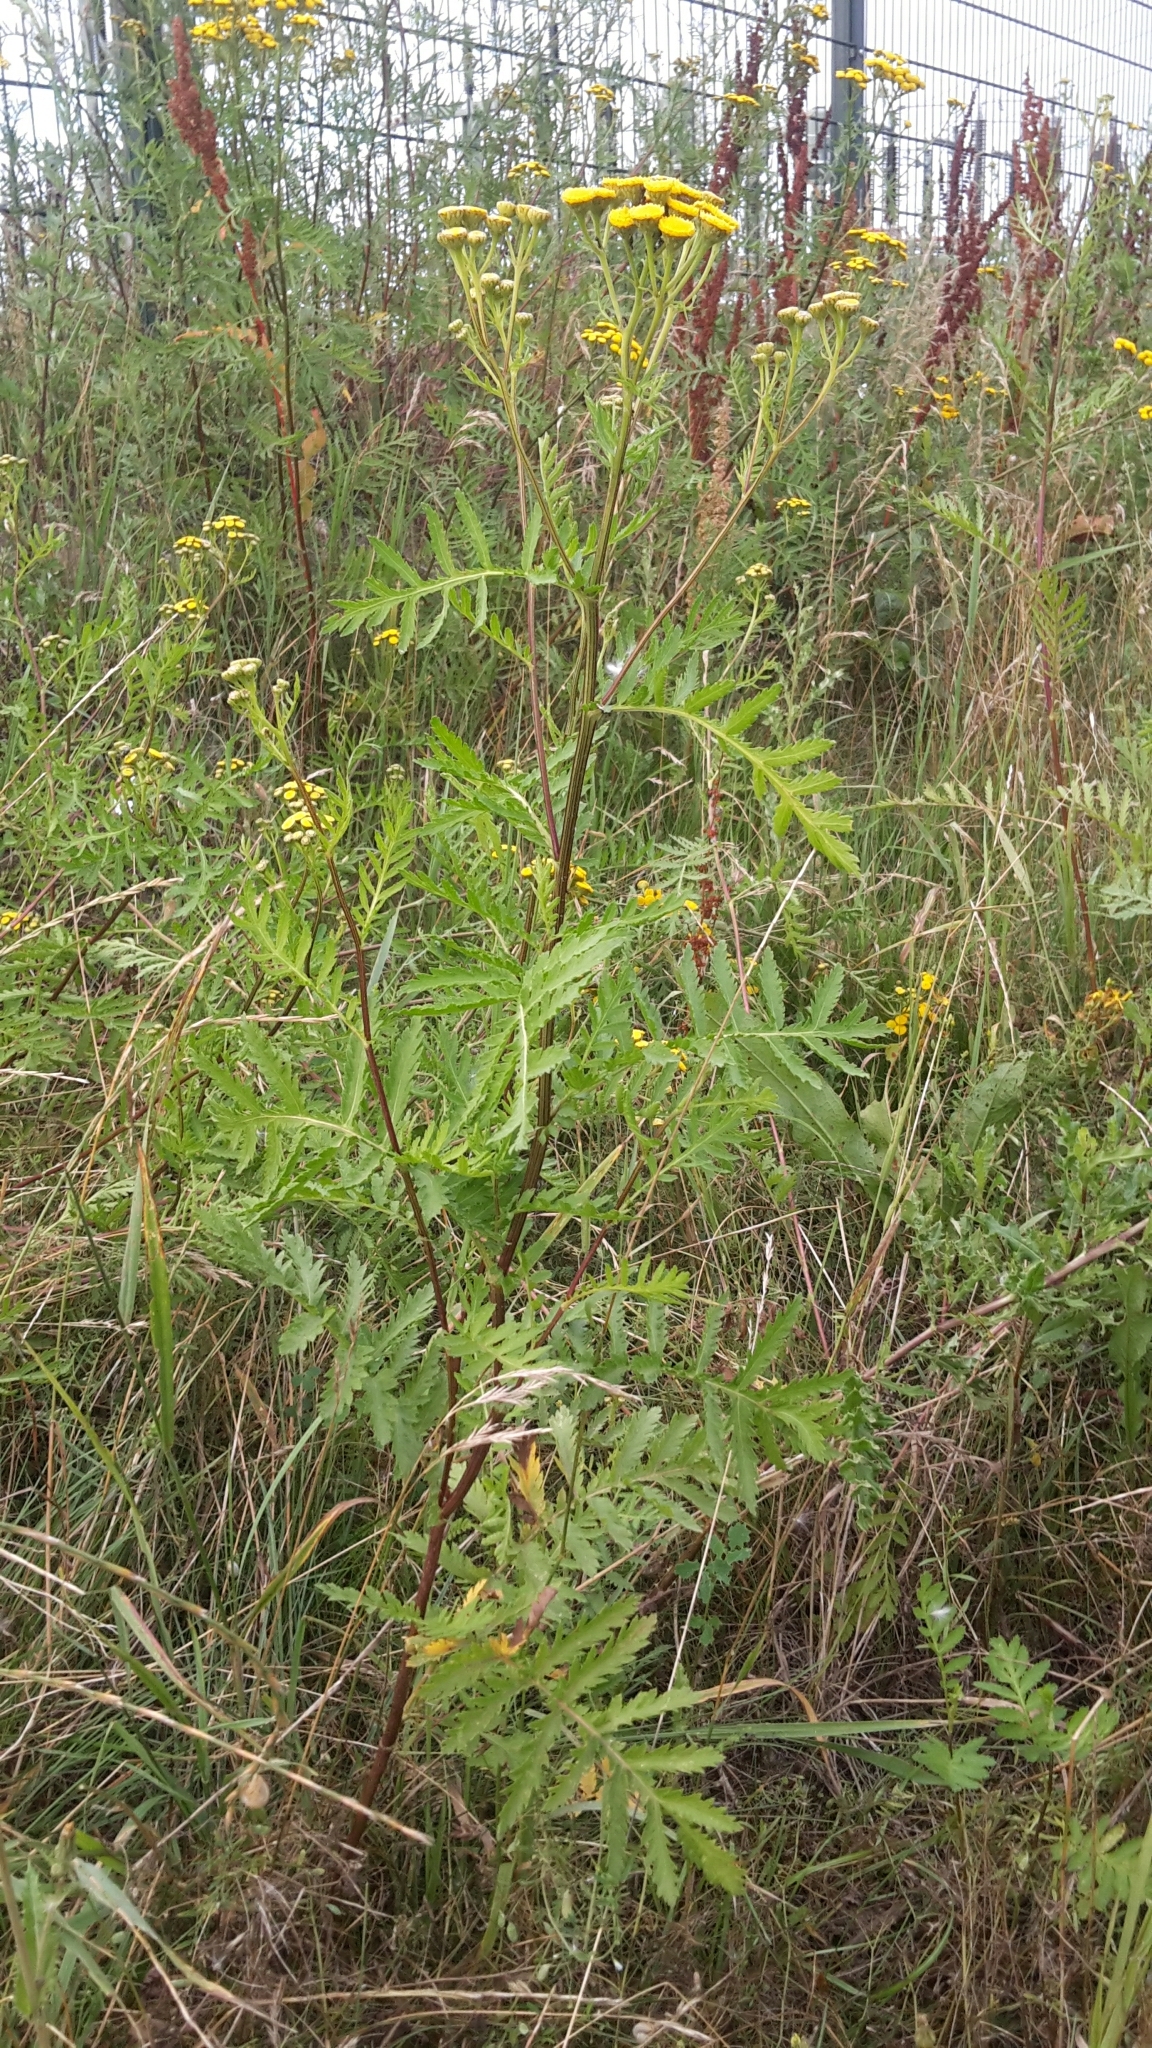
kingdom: Plantae
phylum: Tracheophyta
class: Magnoliopsida
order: Asterales
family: Asteraceae
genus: Tanacetum
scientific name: Tanacetum vulgare
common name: Common tansy
